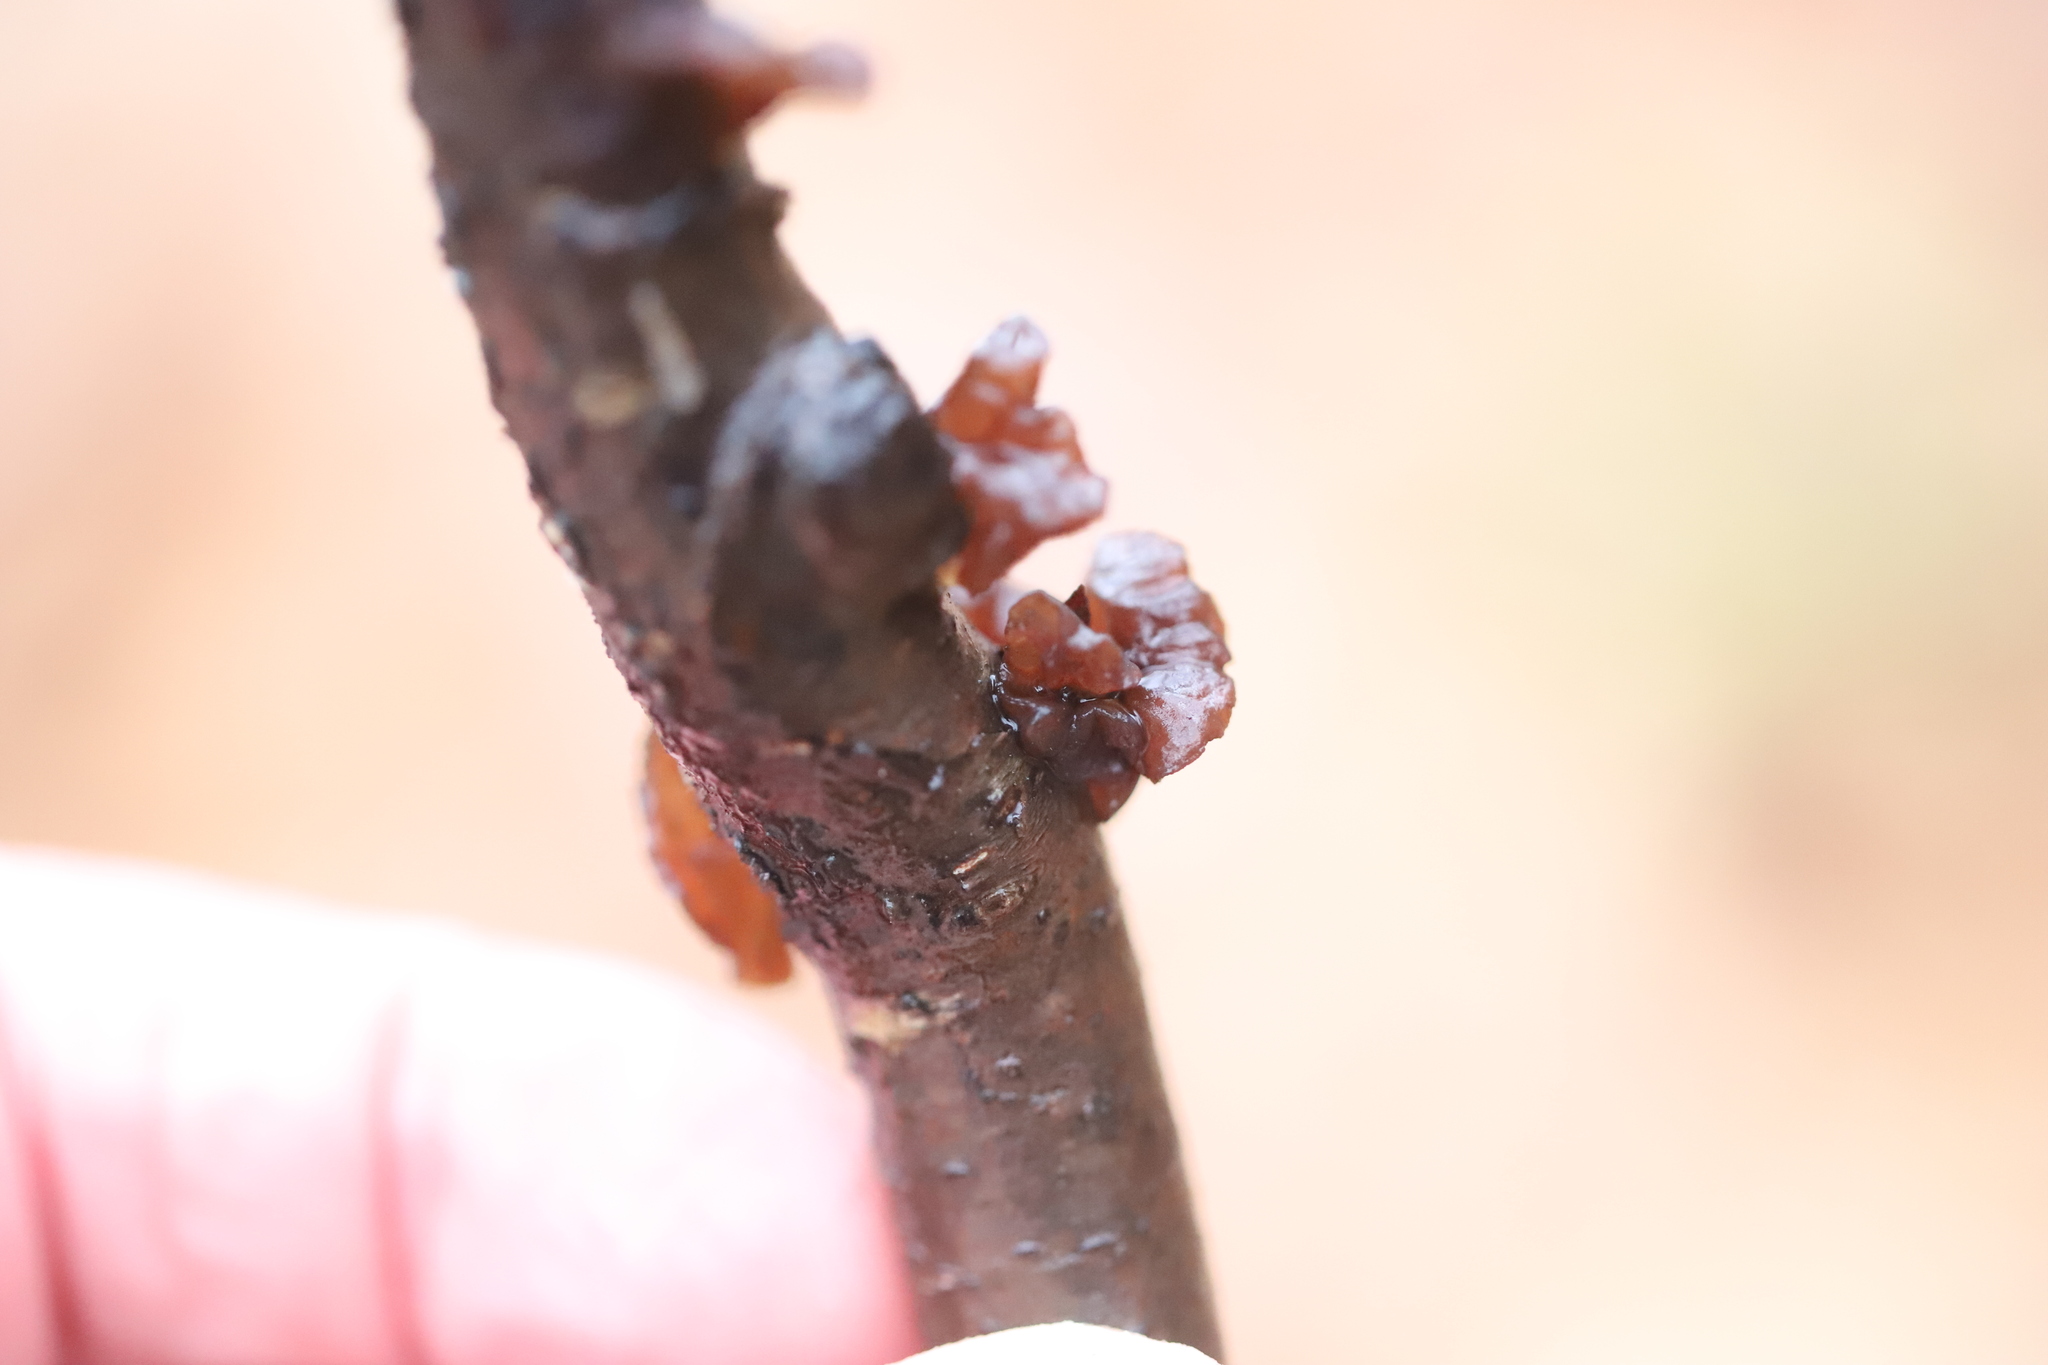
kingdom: Fungi
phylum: Basidiomycota
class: Agaricomycetes
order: Auriculariales
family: Auriculariaceae
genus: Exidia
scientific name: Exidia
